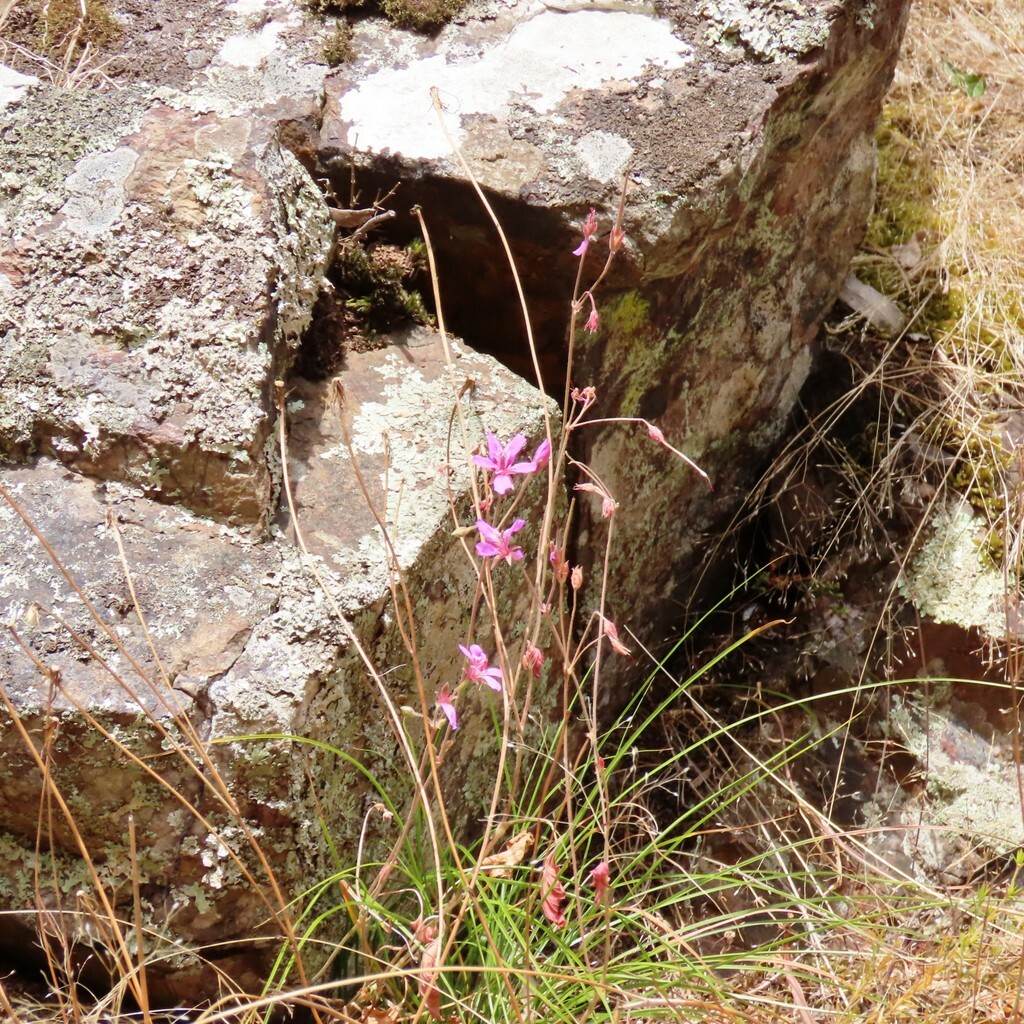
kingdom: Plantae
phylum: Tracheophyta
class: Magnoliopsida
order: Geraniales
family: Geraniaceae
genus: Pelargonium
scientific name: Pelargonium rodneyanum
